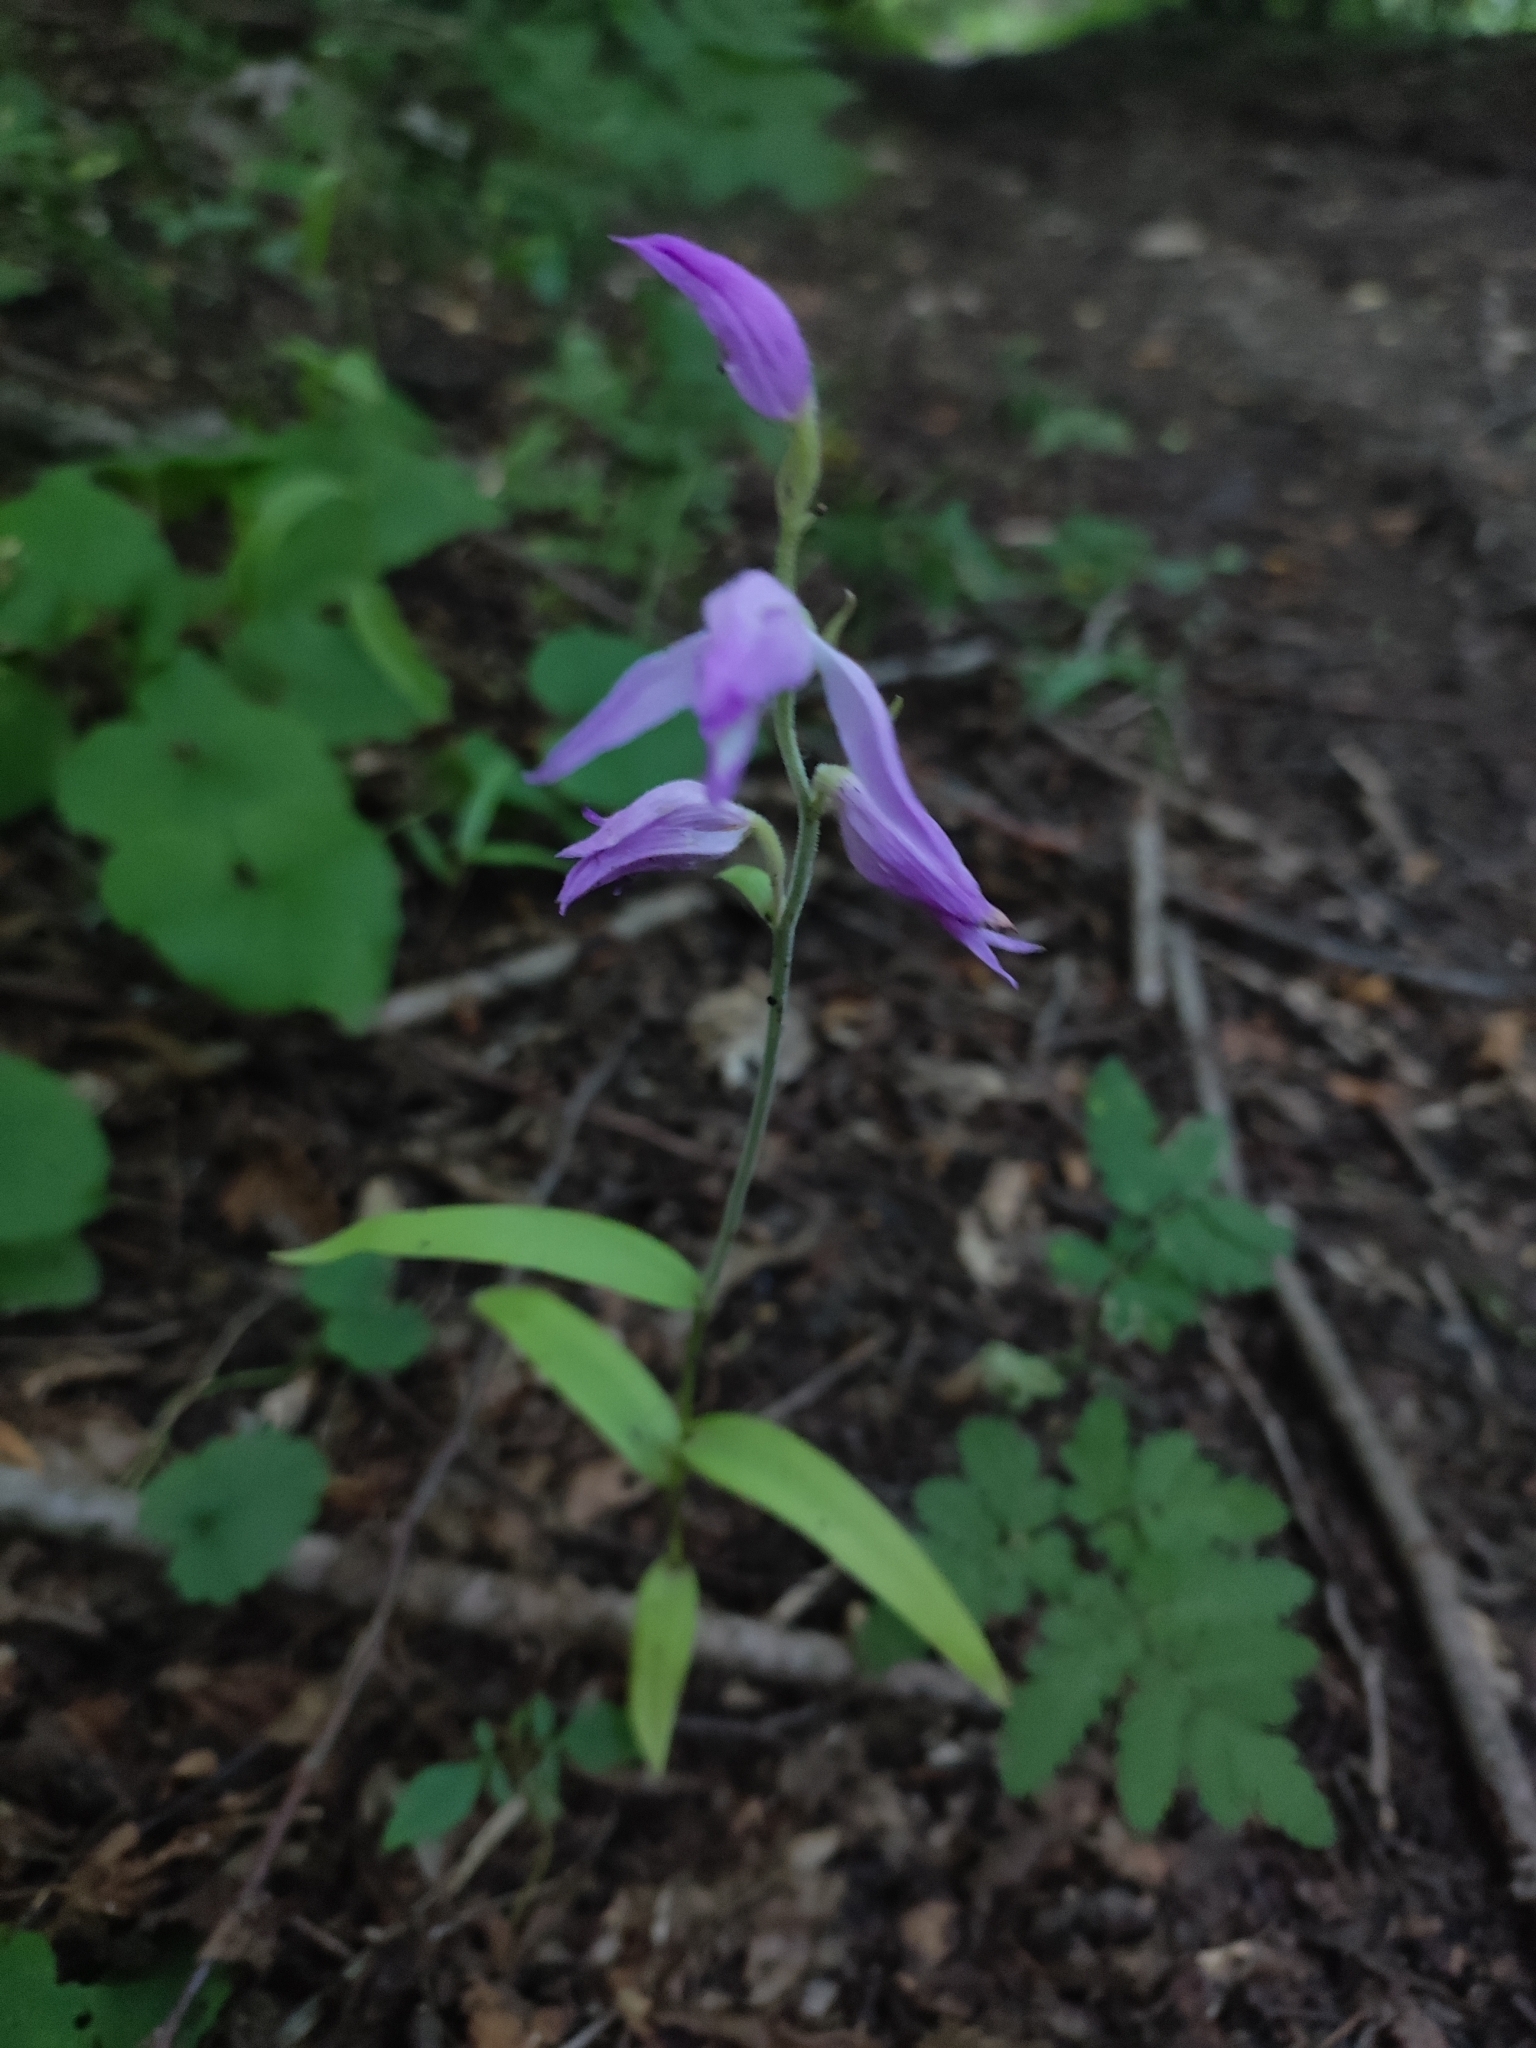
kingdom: Plantae
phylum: Tracheophyta
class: Liliopsida
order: Asparagales
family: Orchidaceae
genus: Cephalanthera
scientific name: Cephalanthera rubra
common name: Red helleborine
